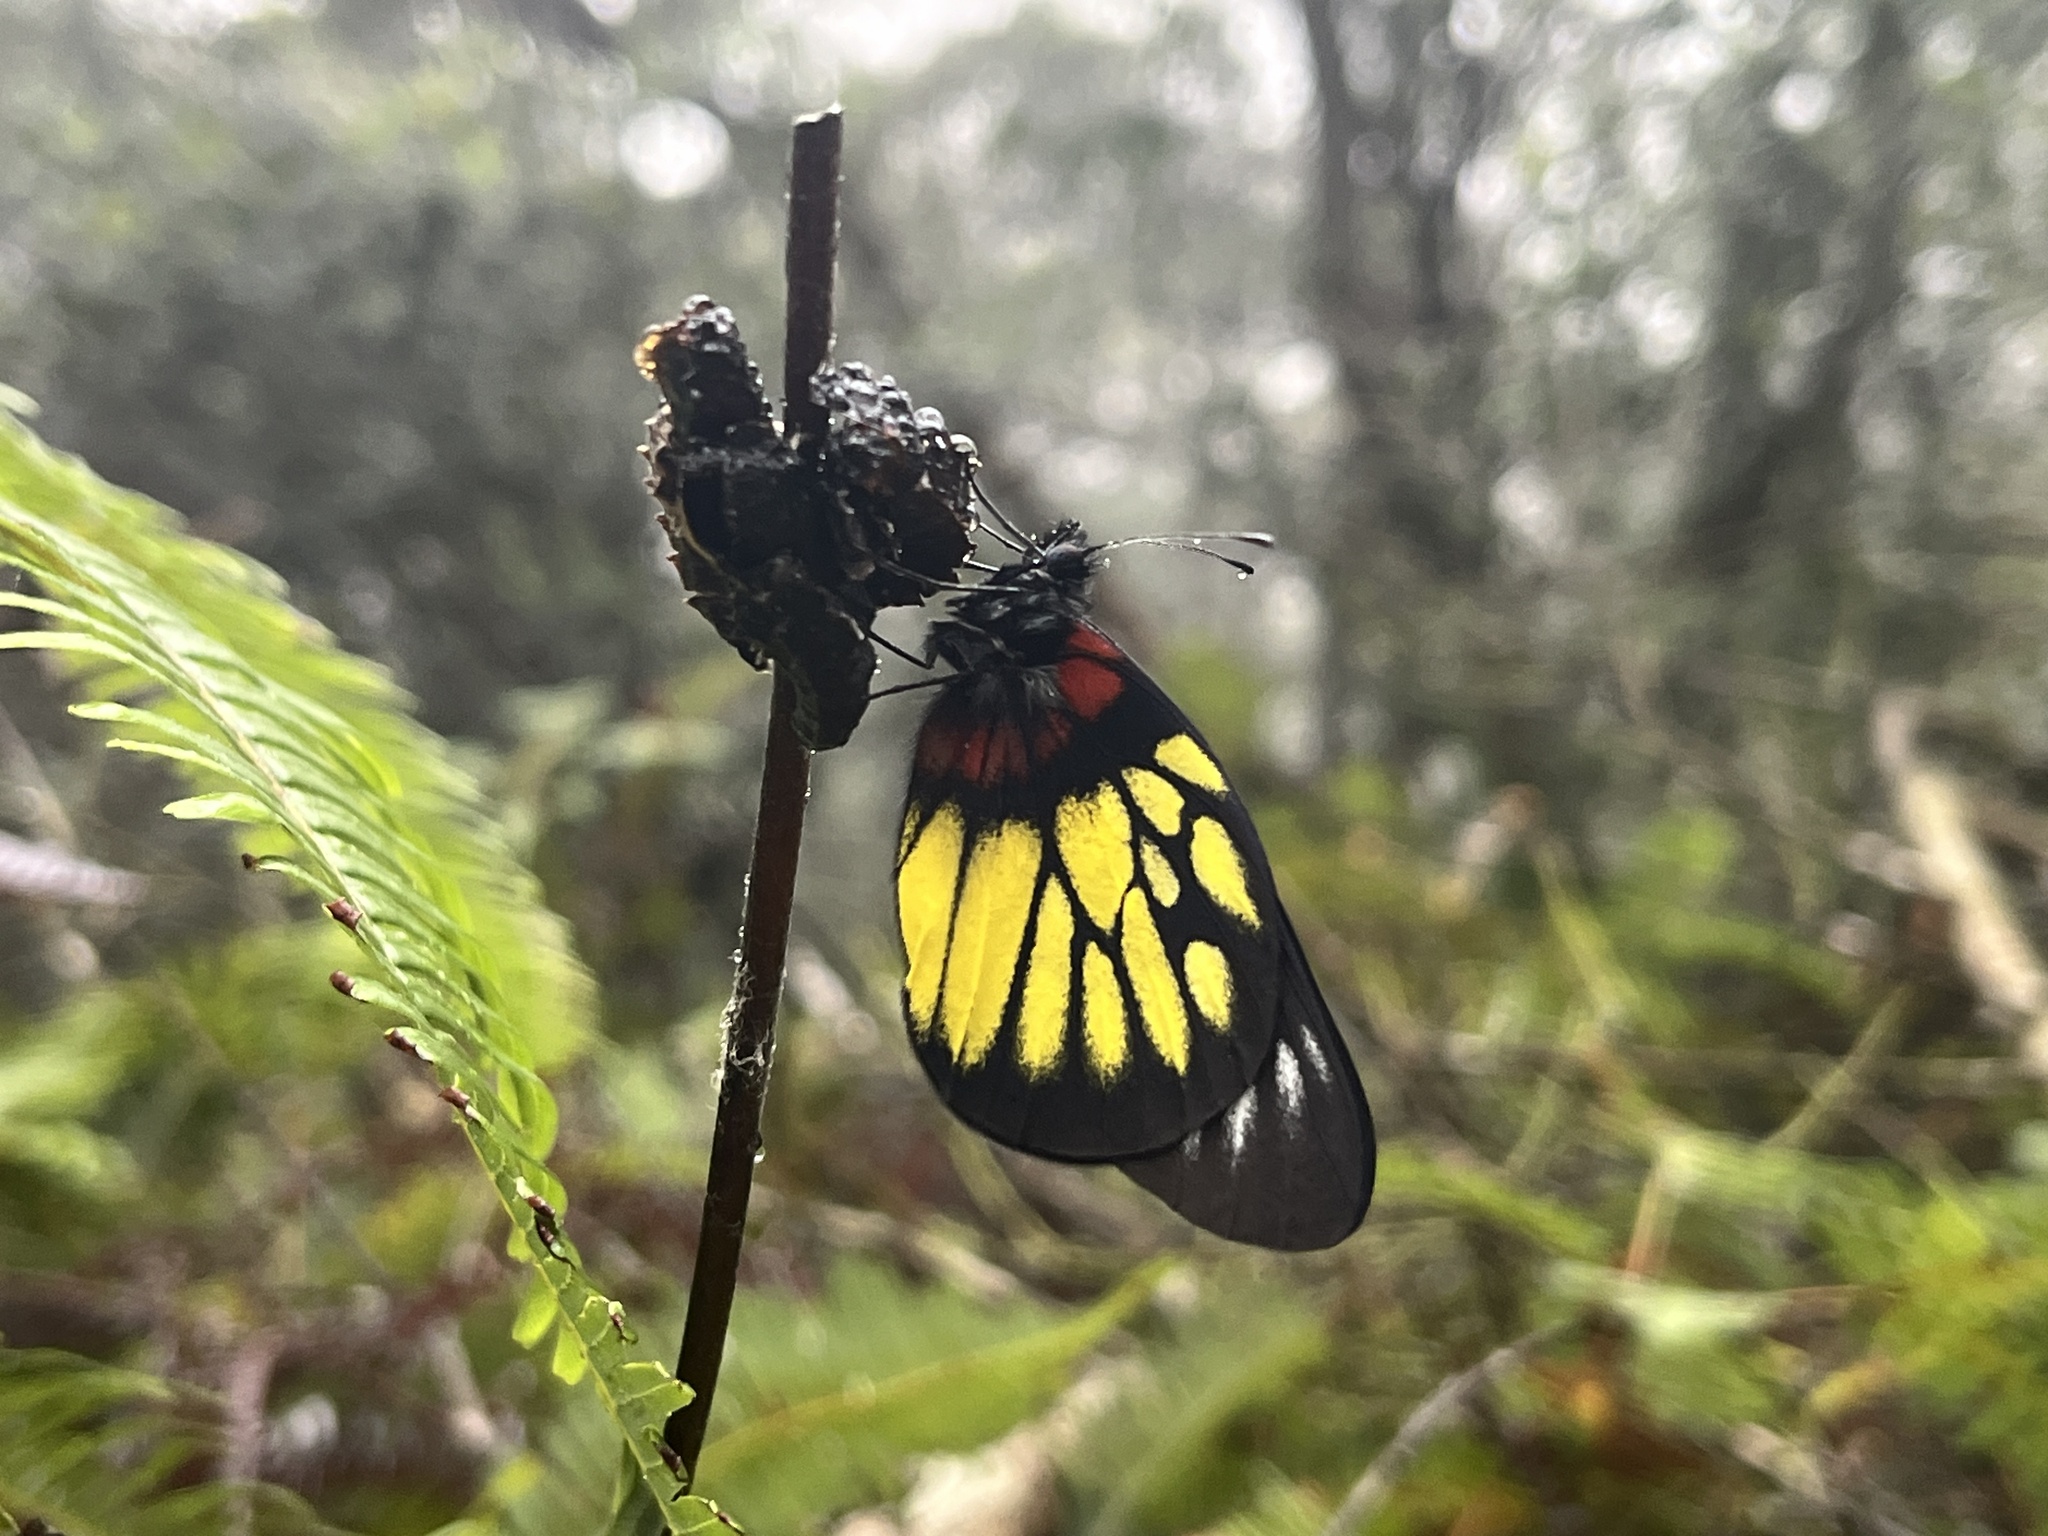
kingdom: Animalia
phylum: Arthropoda
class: Insecta
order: Lepidoptera
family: Pieridae
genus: Delias
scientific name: Delias pasithoe
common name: Red-base jezebel
